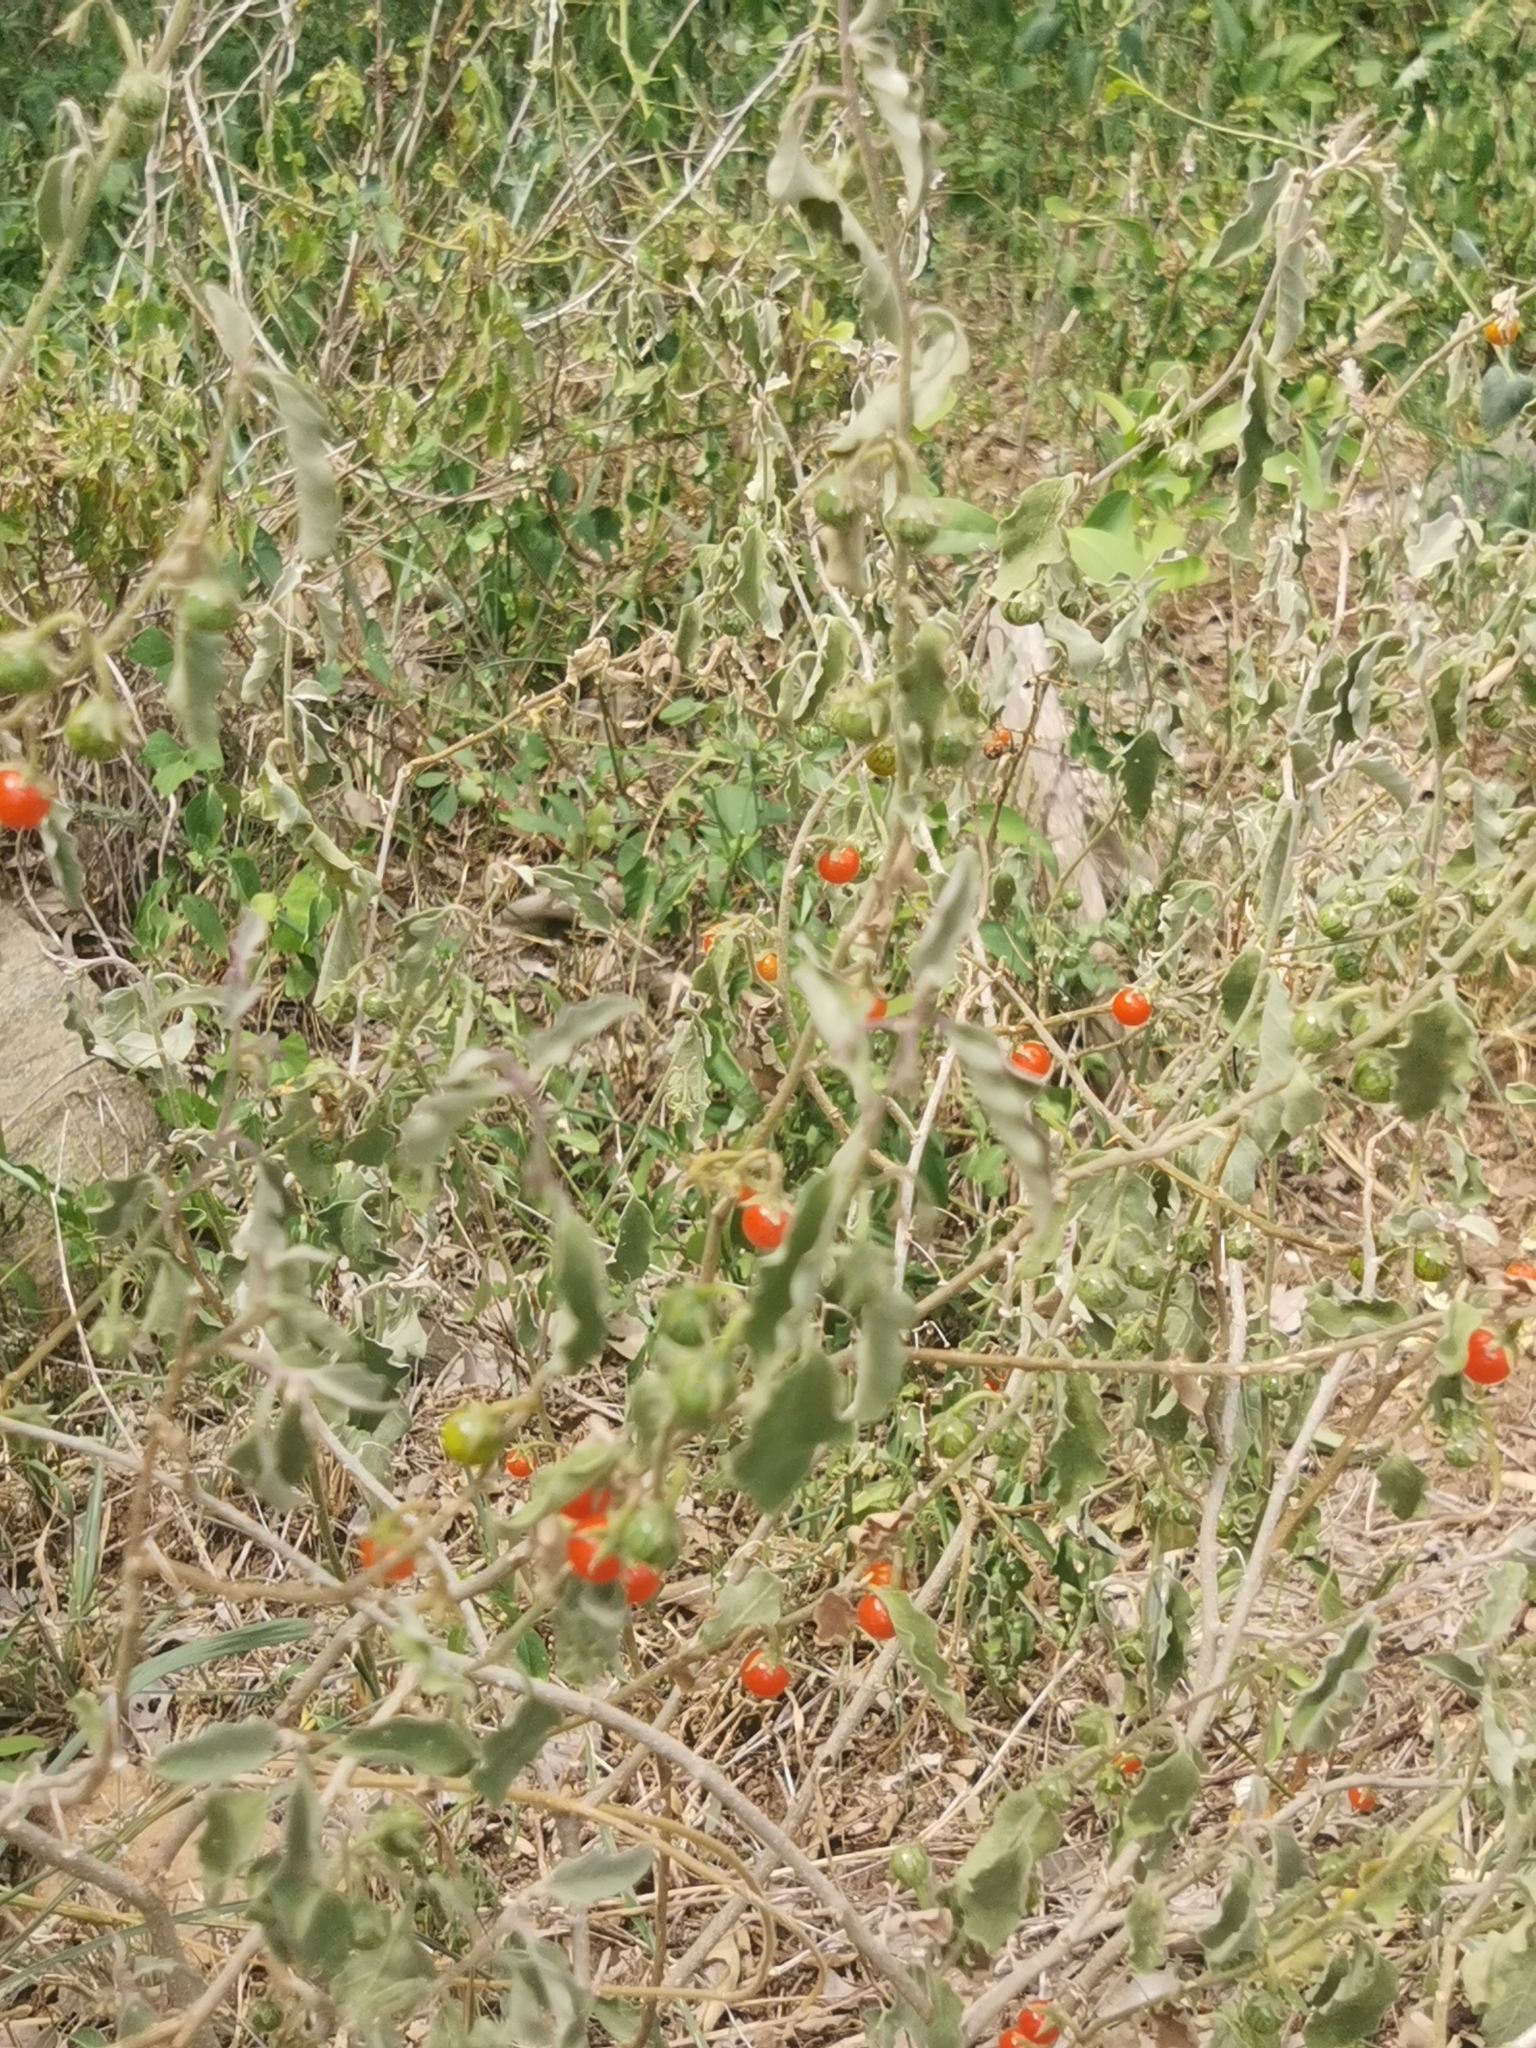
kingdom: Plantae
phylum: Tracheophyta
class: Magnoliopsida
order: Solanales
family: Solanaceae
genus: Solanum
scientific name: Solanum catombelense
